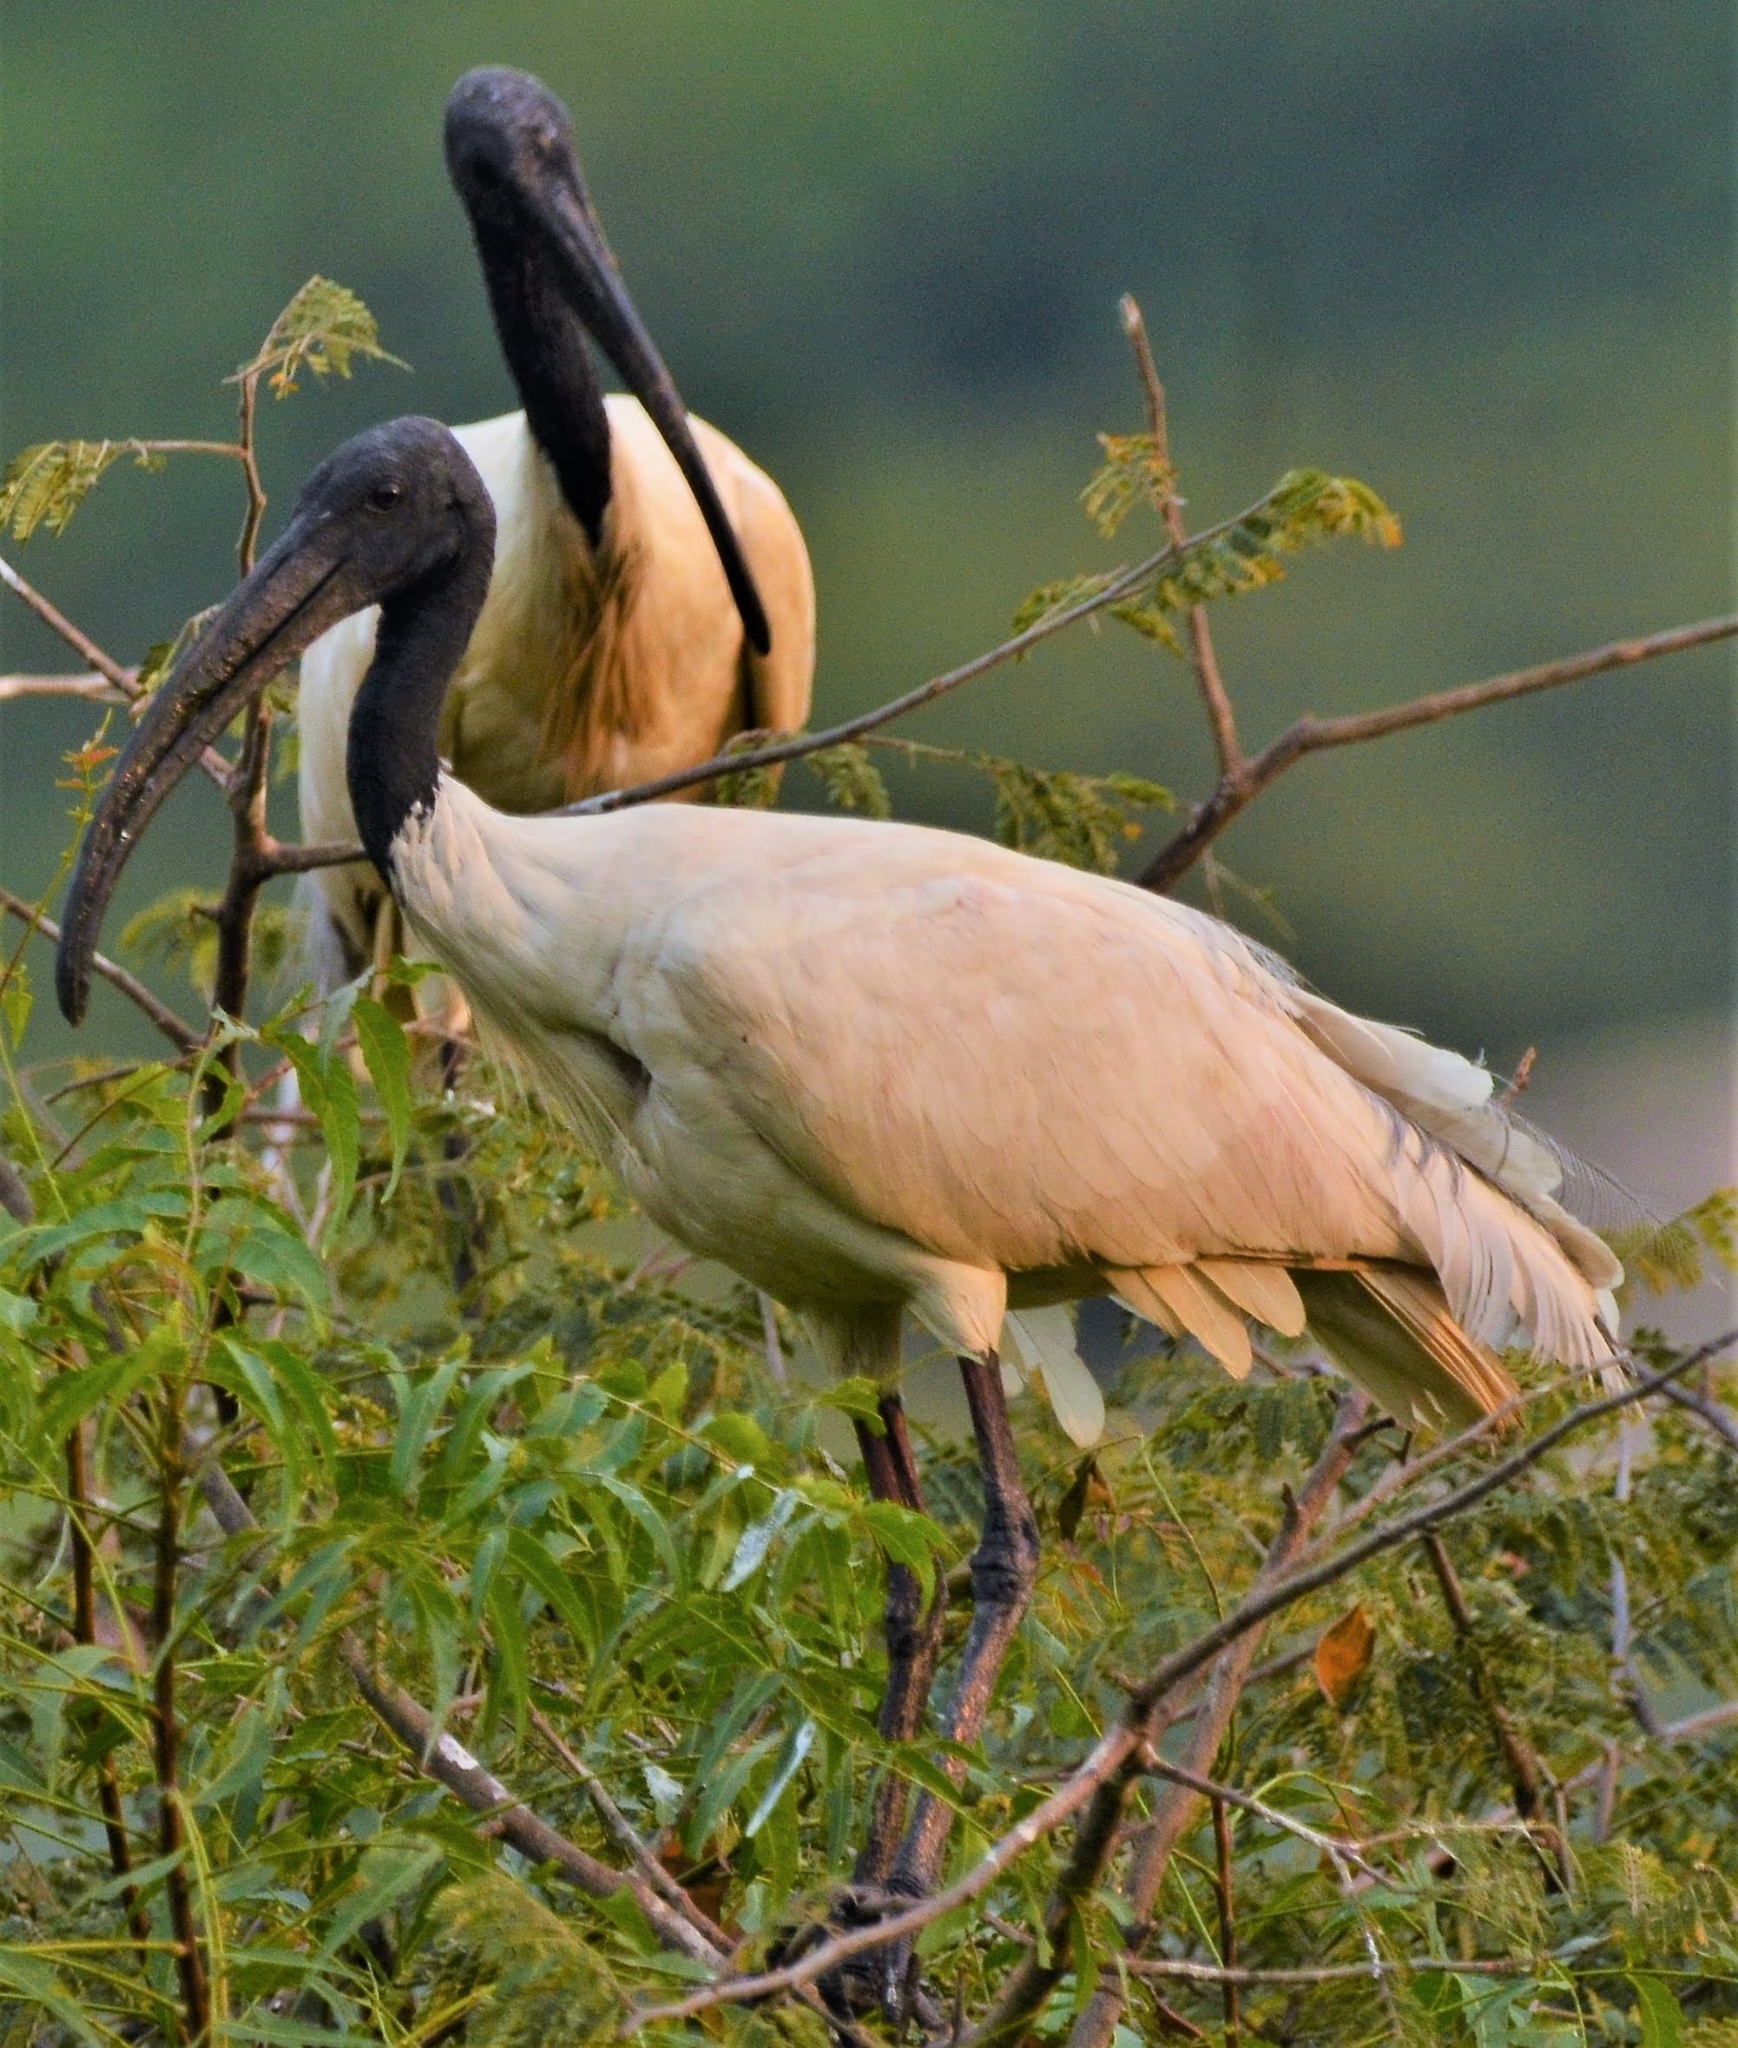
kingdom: Animalia
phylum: Chordata
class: Aves
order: Pelecaniformes
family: Threskiornithidae
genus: Threskiornis
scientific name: Threskiornis melanocephalus
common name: Black-headed ibis
